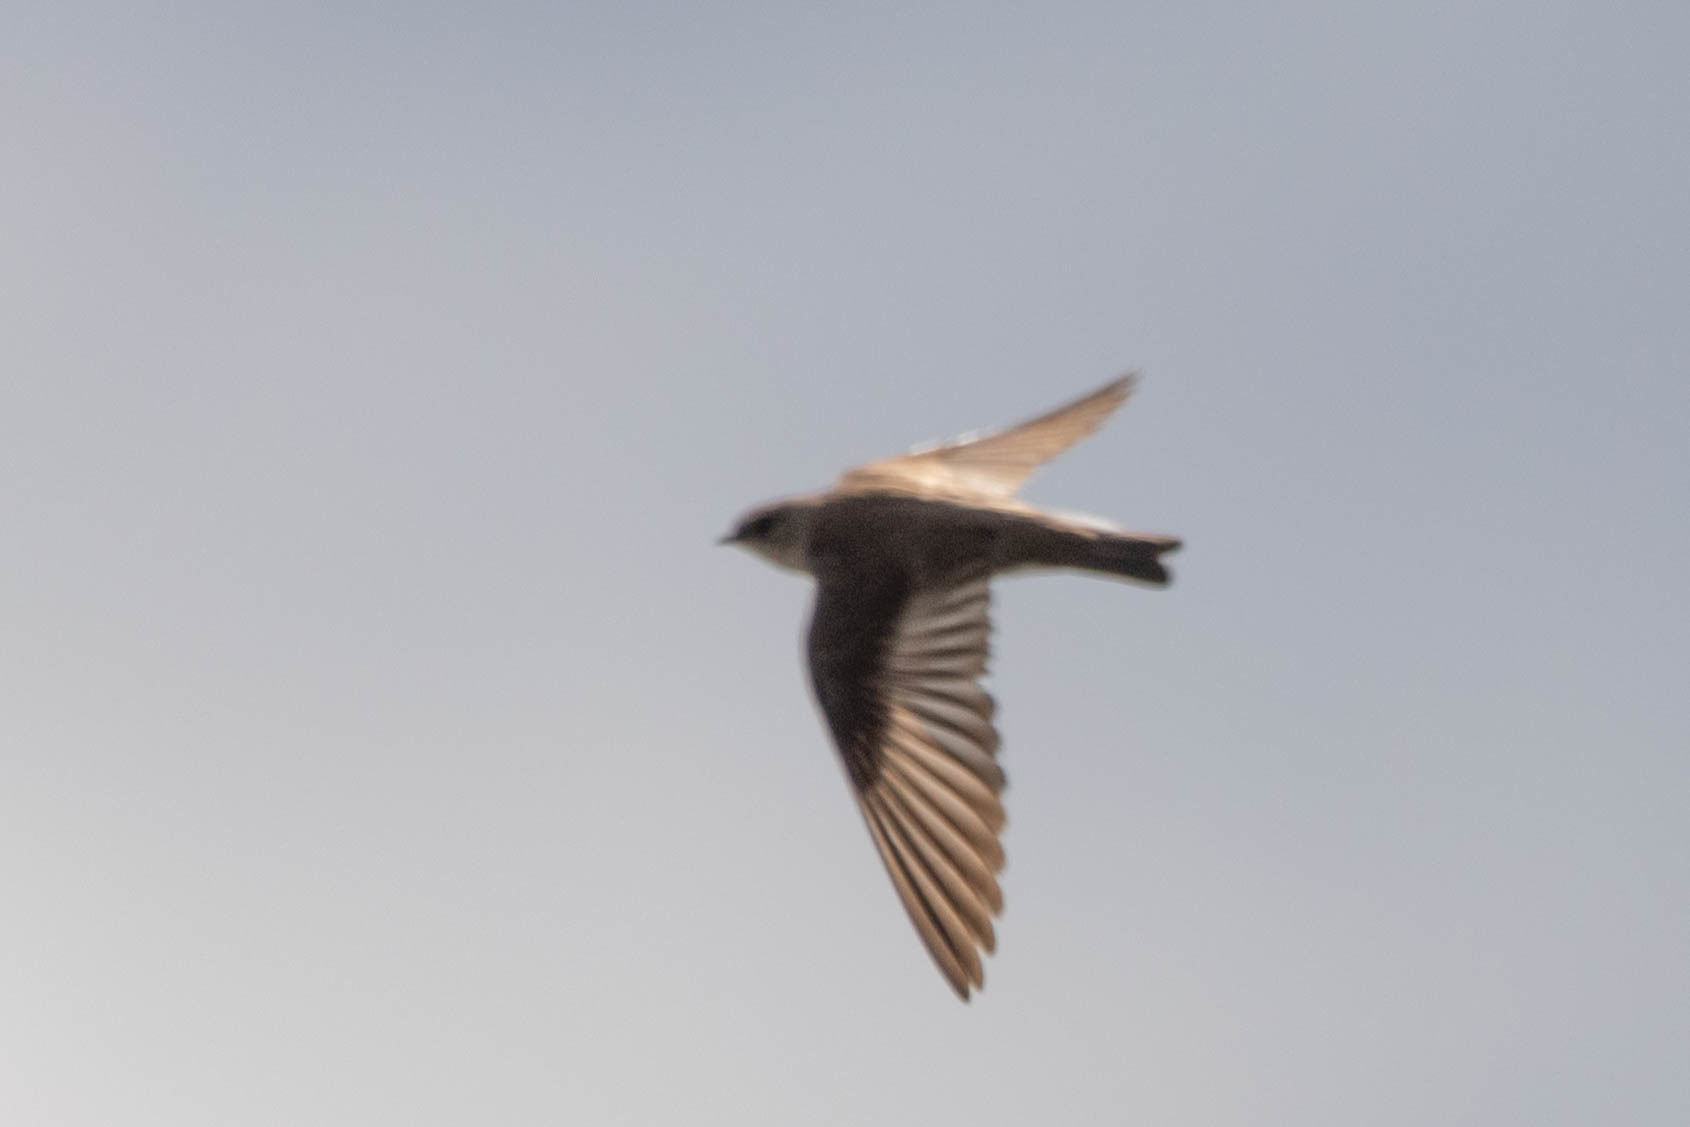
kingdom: Animalia
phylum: Chordata
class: Aves
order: Passeriformes
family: Hirundinidae
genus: Stelgidopteryx
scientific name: Stelgidopteryx serripennis
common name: Northern rough-winged swallow
